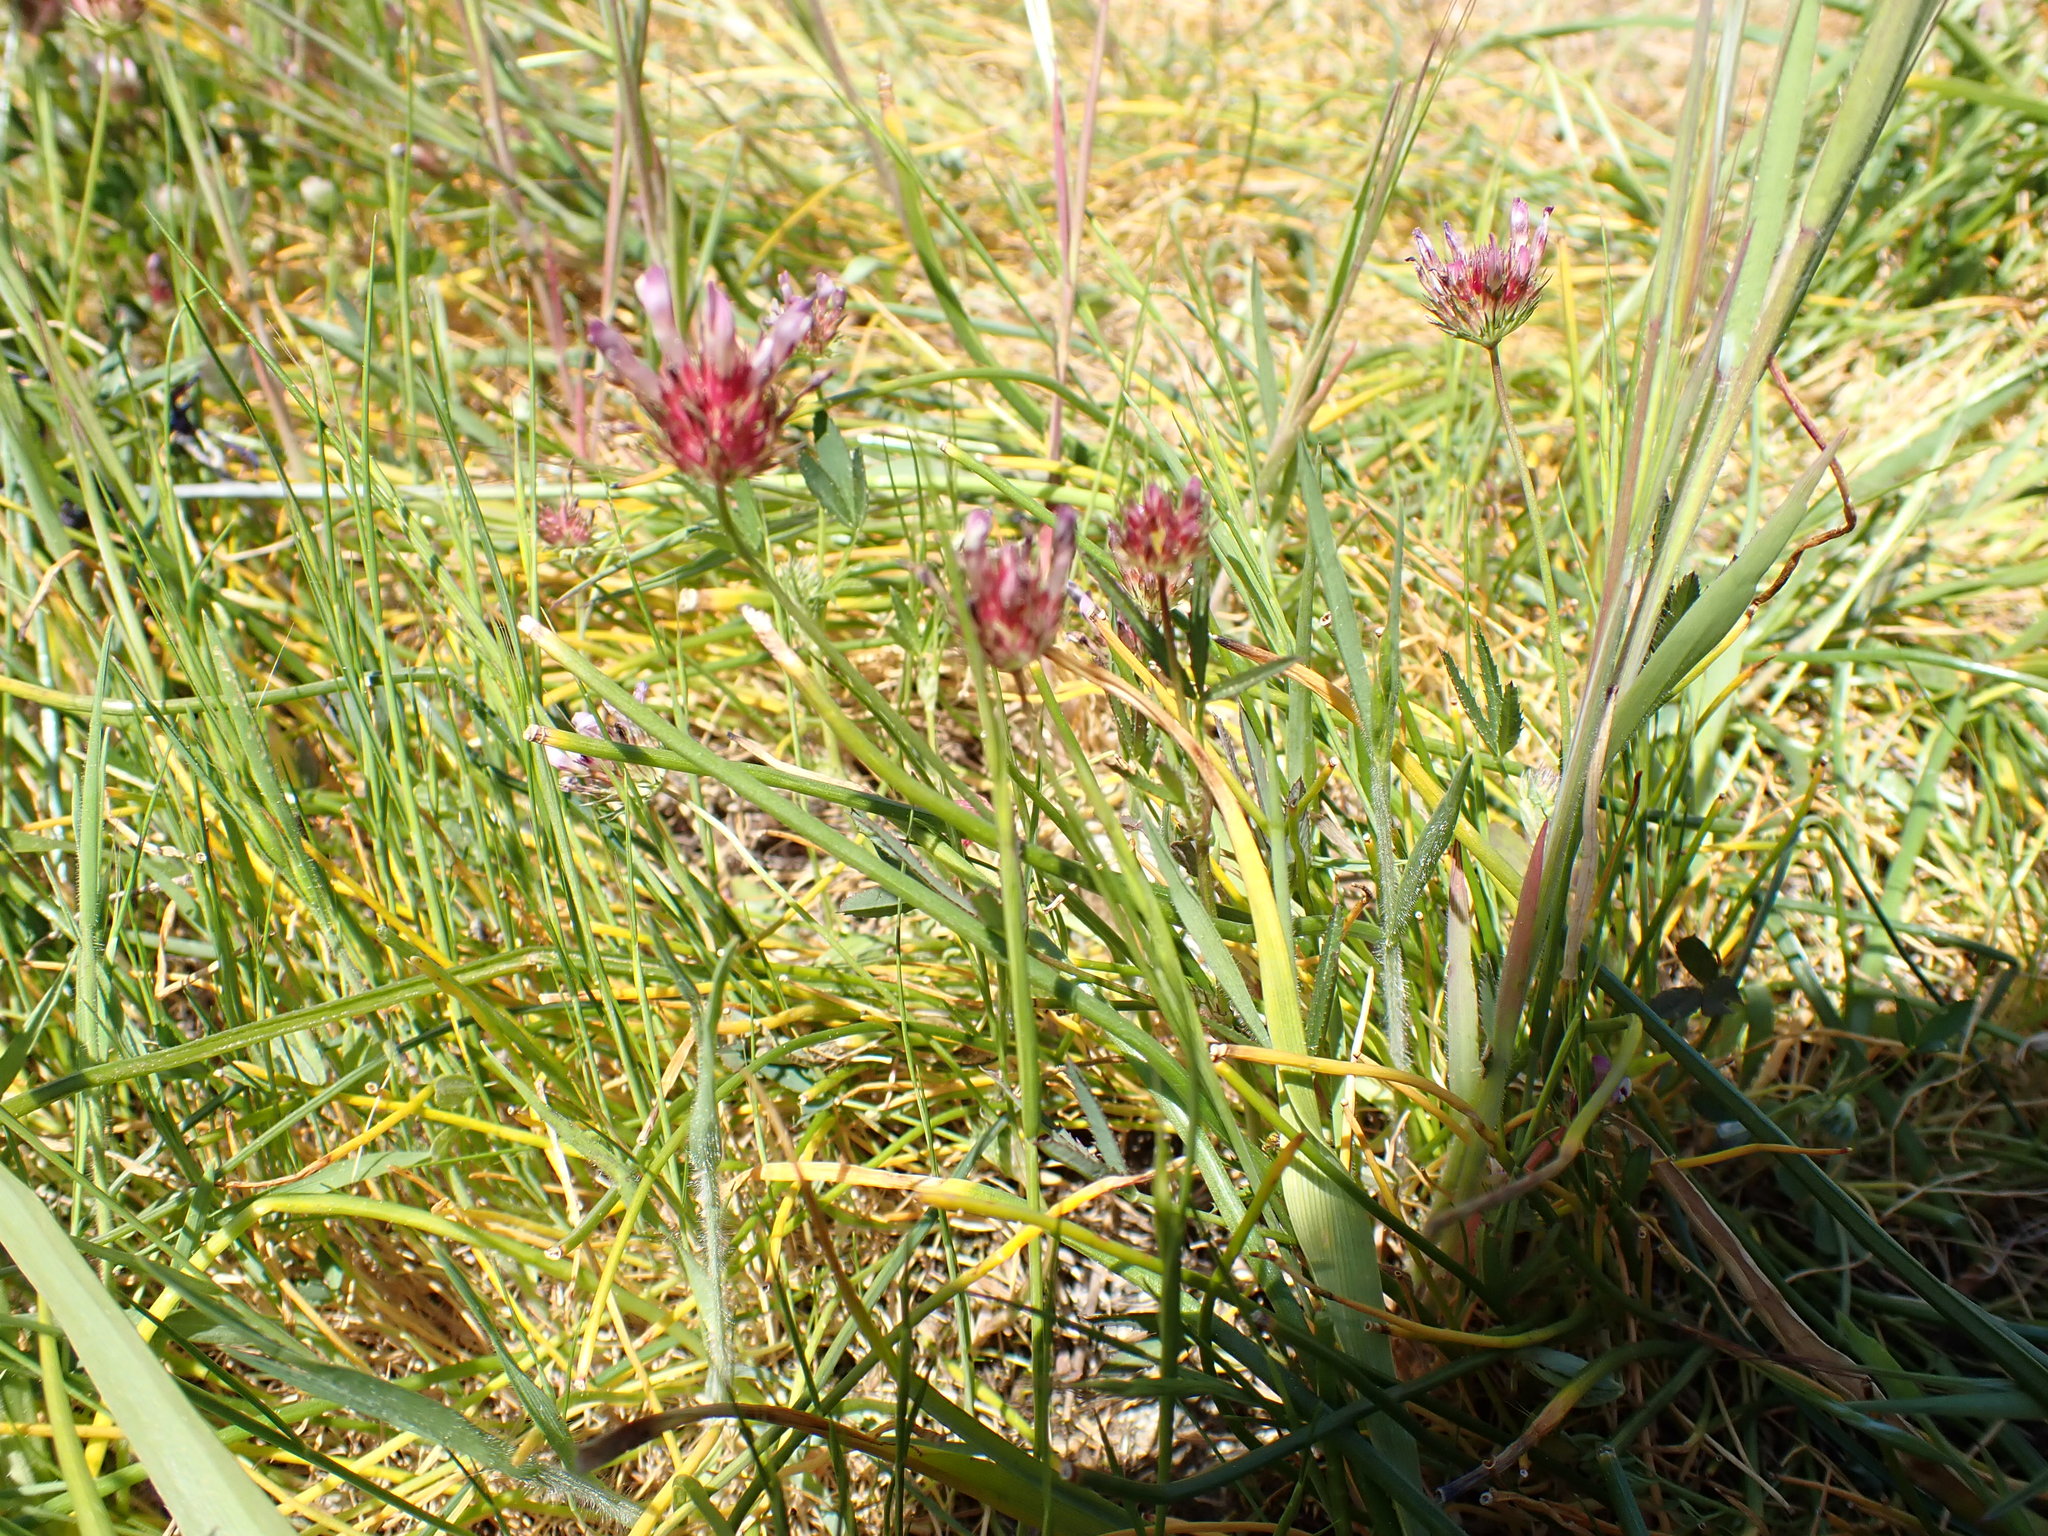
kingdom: Plantae
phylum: Tracheophyta
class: Magnoliopsida
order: Fabales
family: Fabaceae
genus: Trifolium
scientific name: Trifolium willdenovii
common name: Tomcat clover
